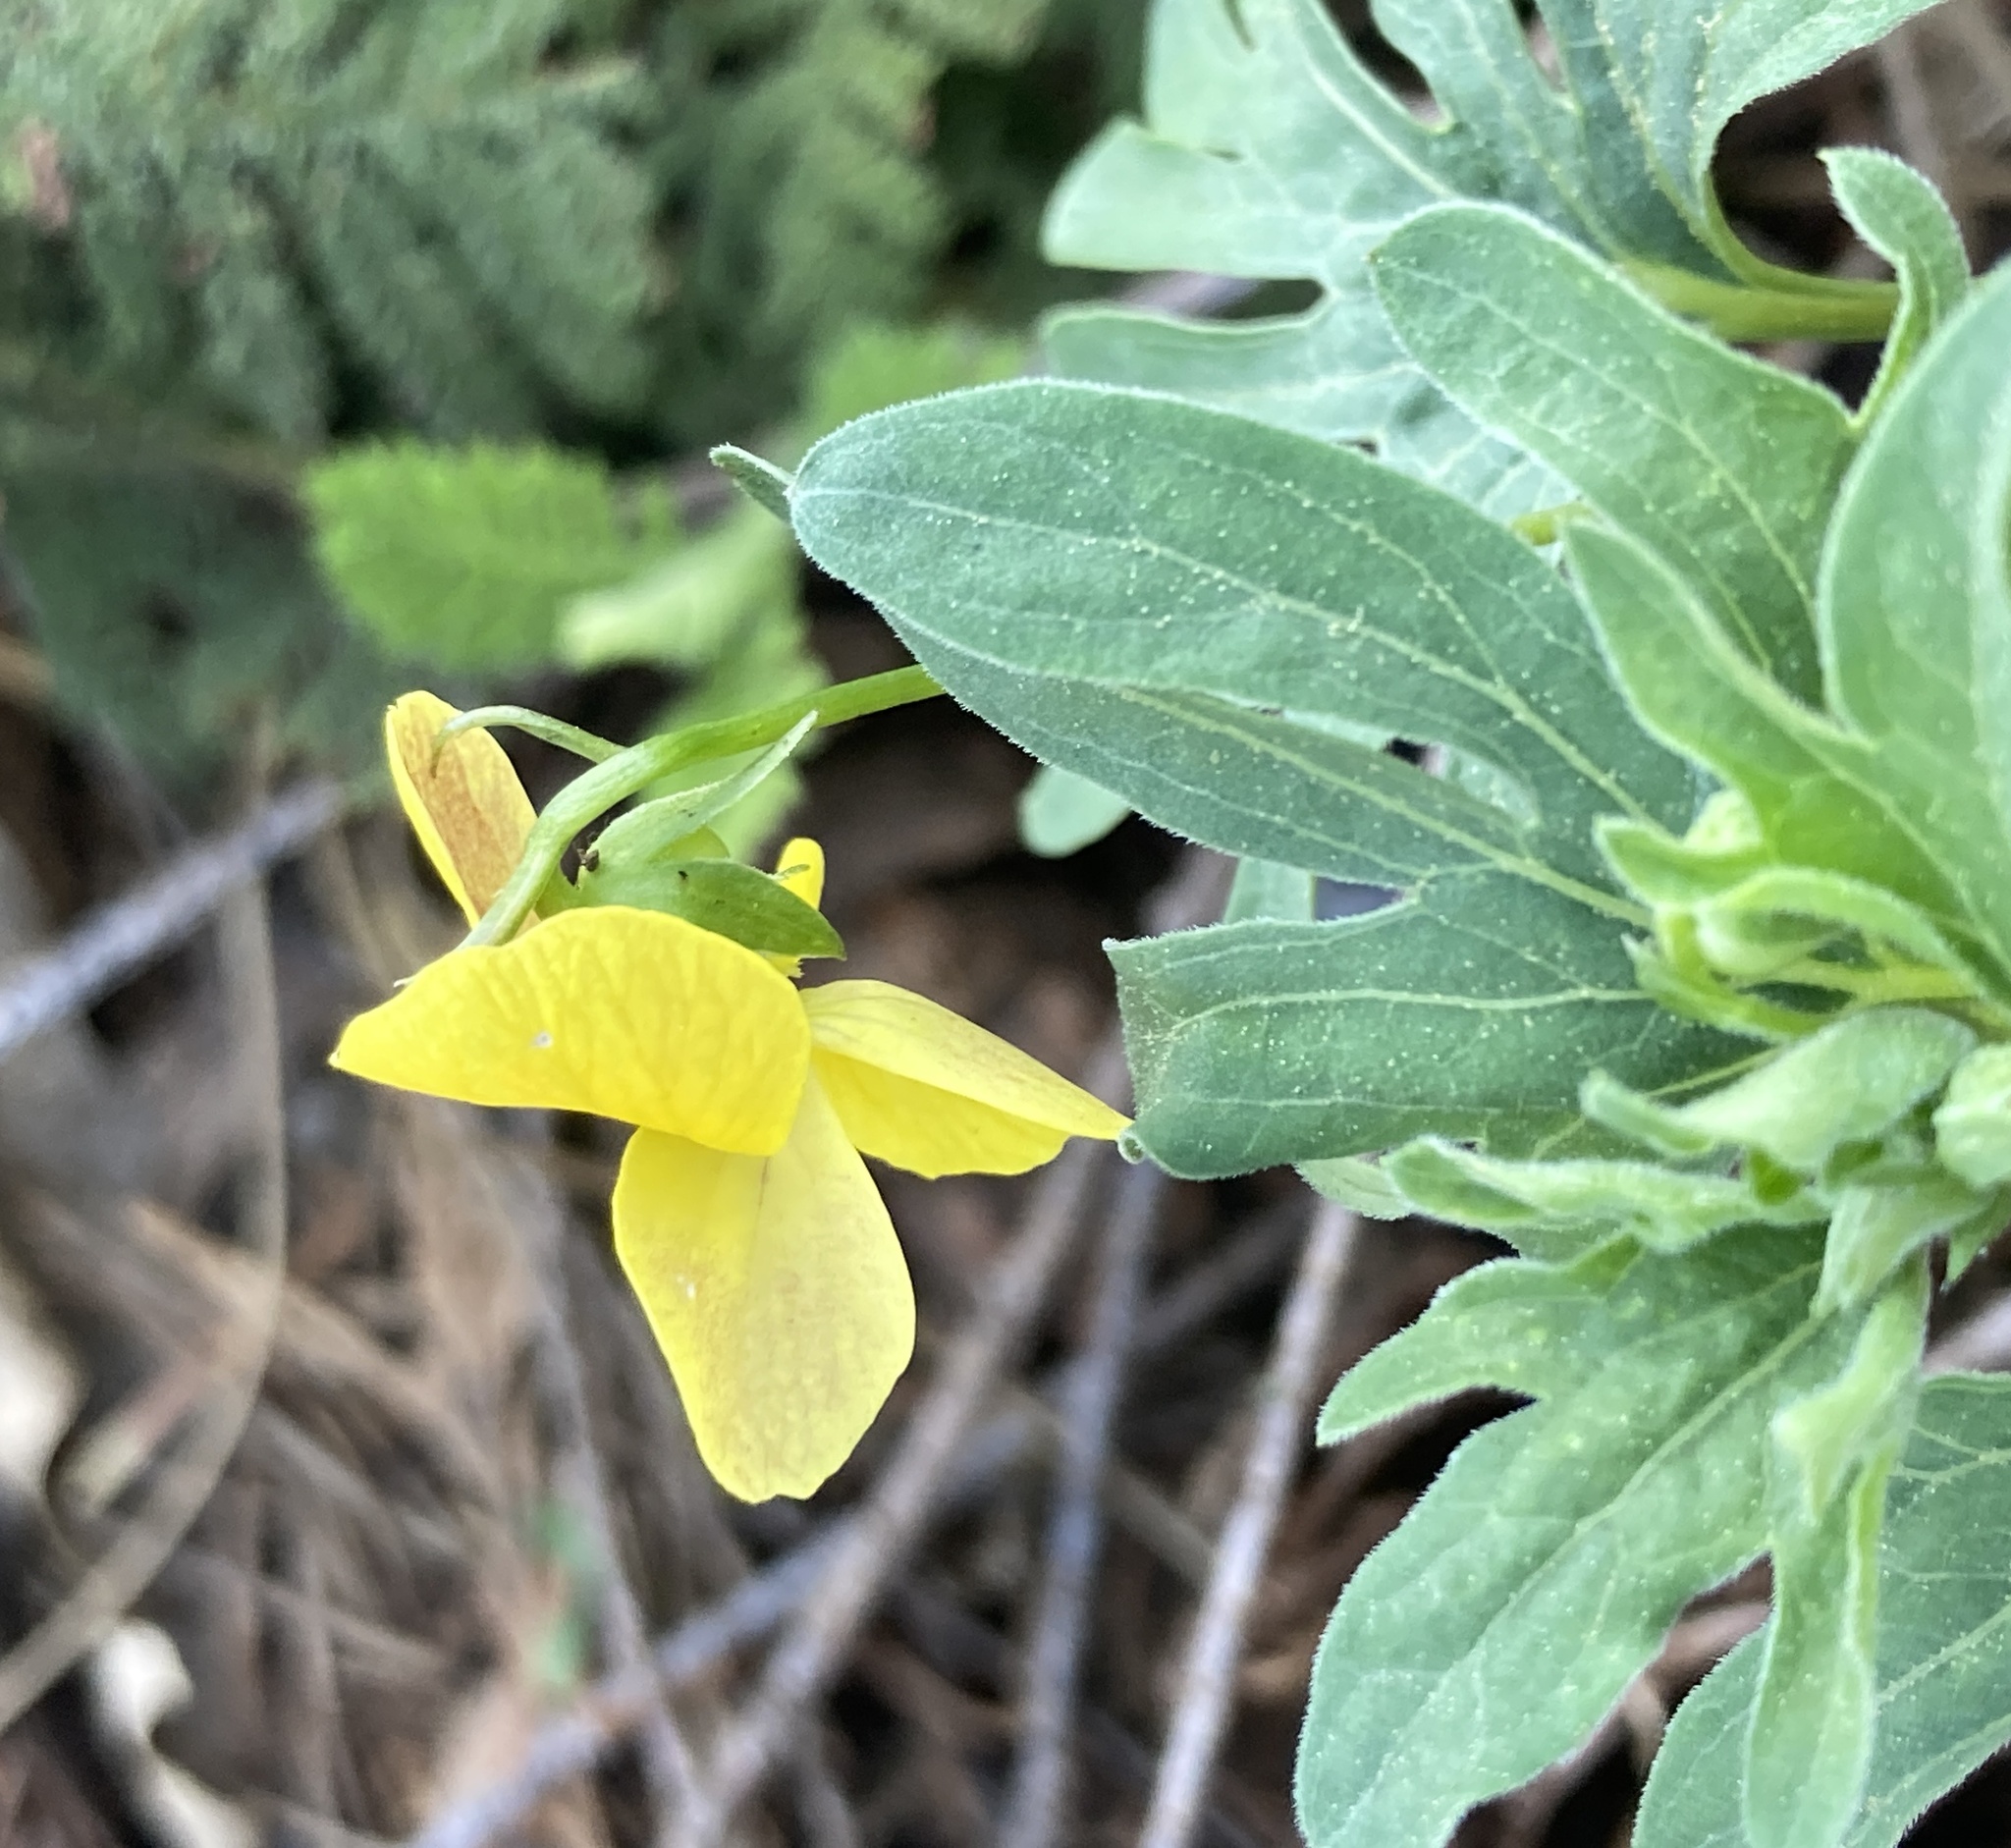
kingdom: Plantae
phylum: Tracheophyta
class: Magnoliopsida
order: Malpighiales
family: Violaceae
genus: Viola
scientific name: Viola lobata
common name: Pine violet
